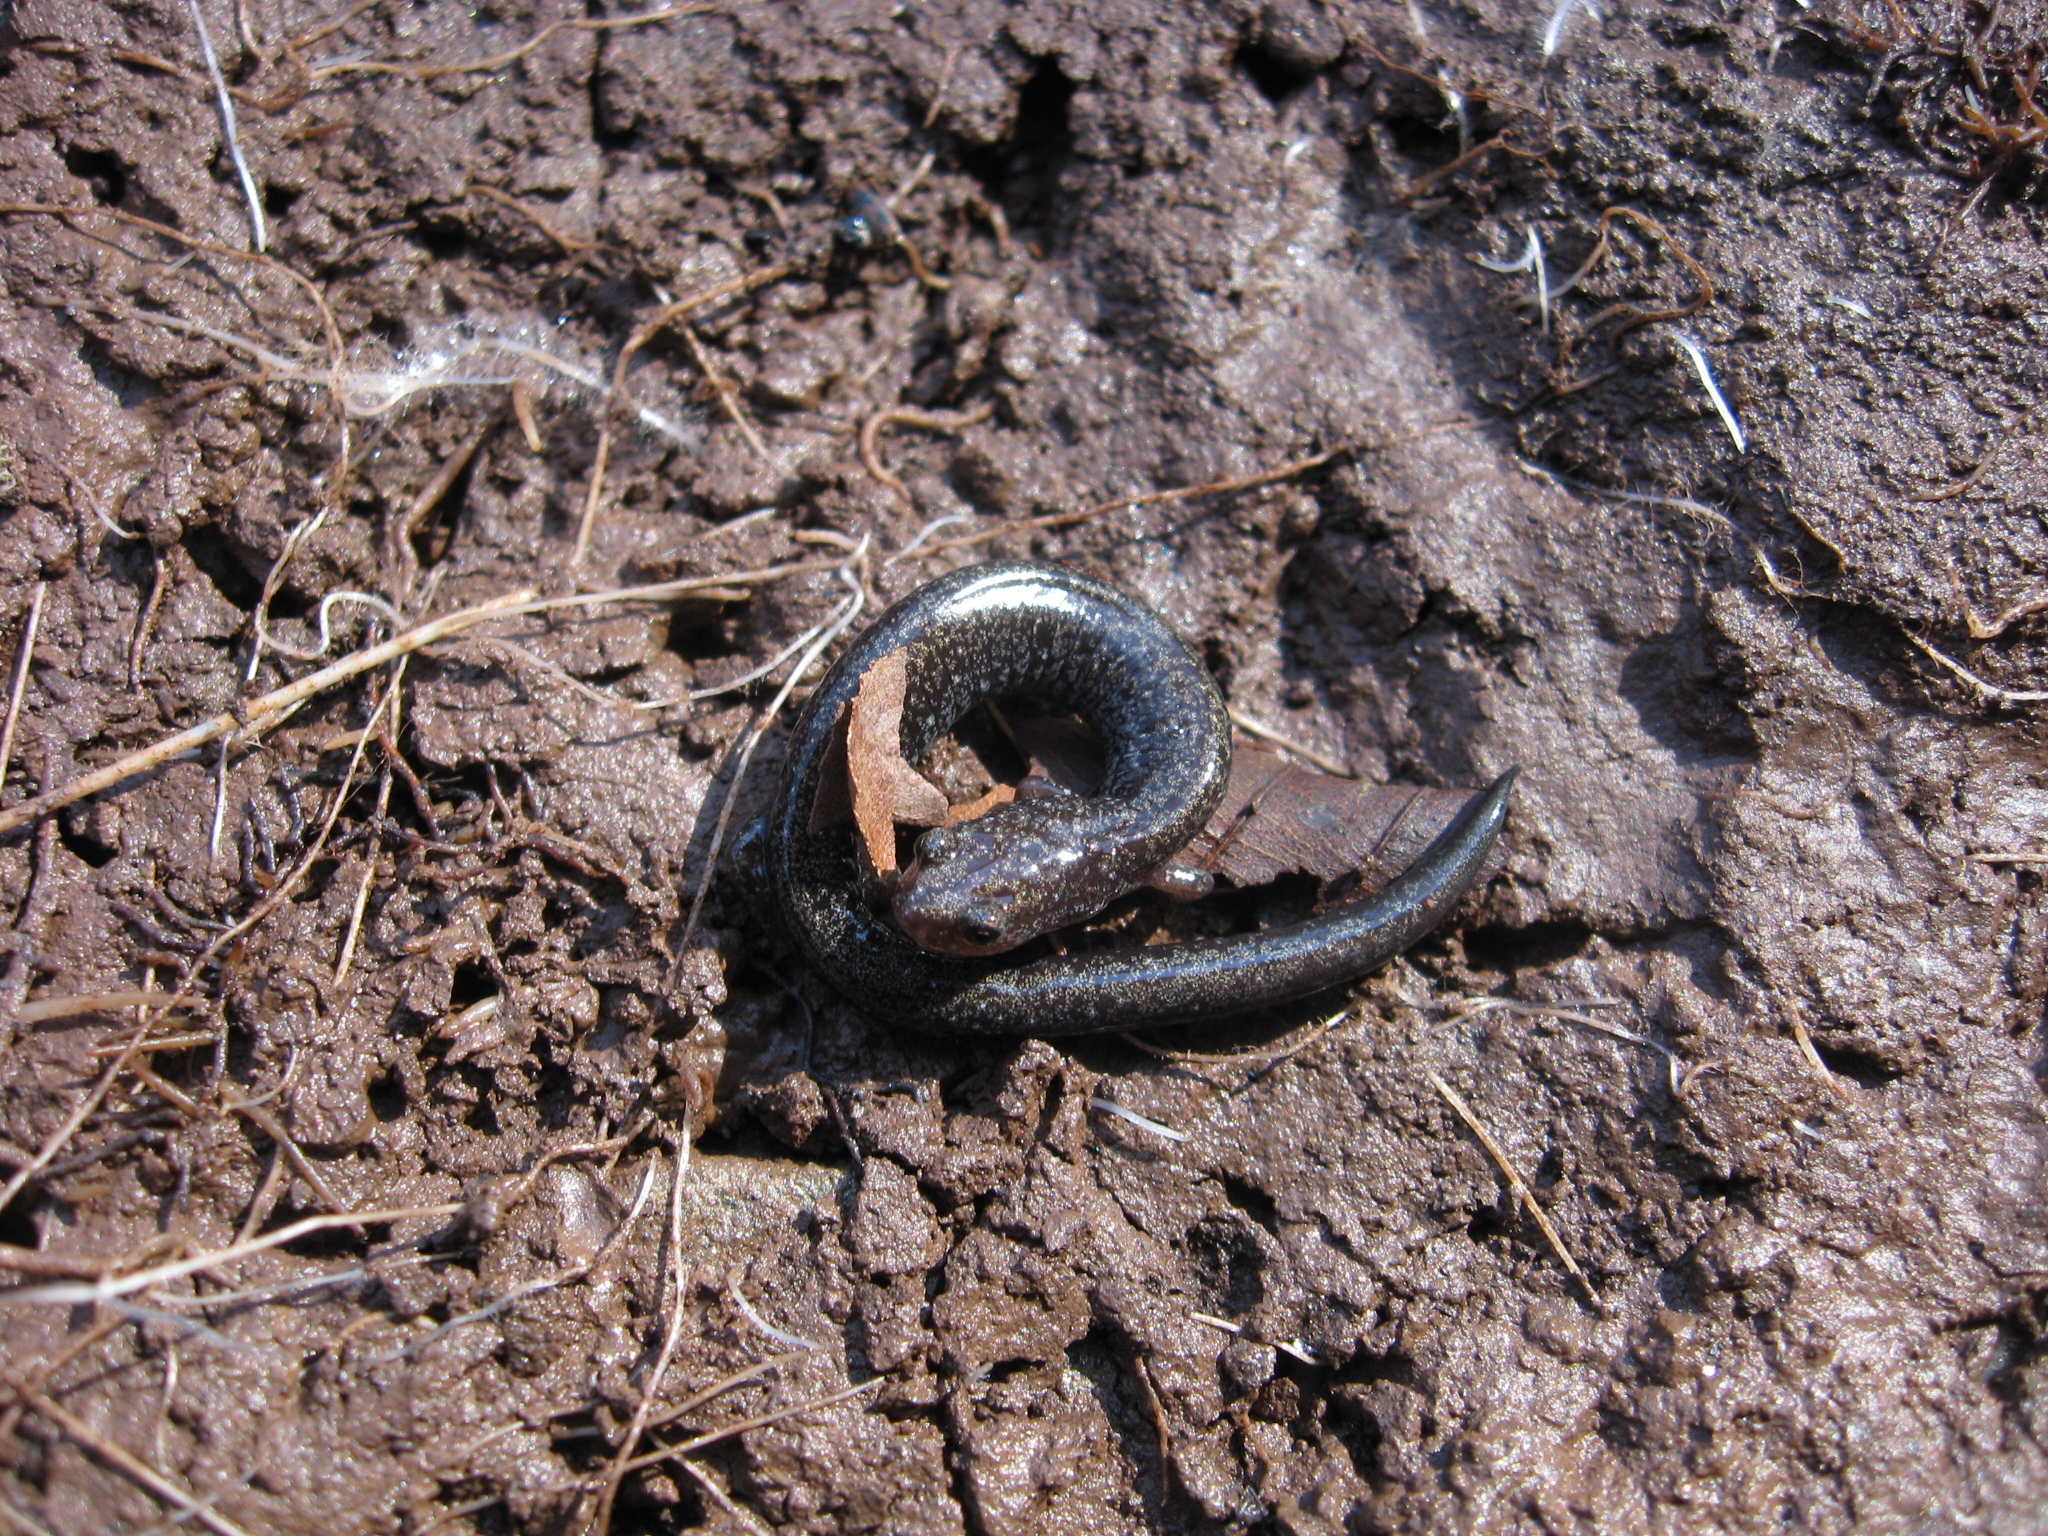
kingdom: Animalia
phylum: Chordata
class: Amphibia
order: Caudata
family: Plethodontidae
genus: Plethodon
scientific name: Plethodon cinereus
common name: Redback salamander
